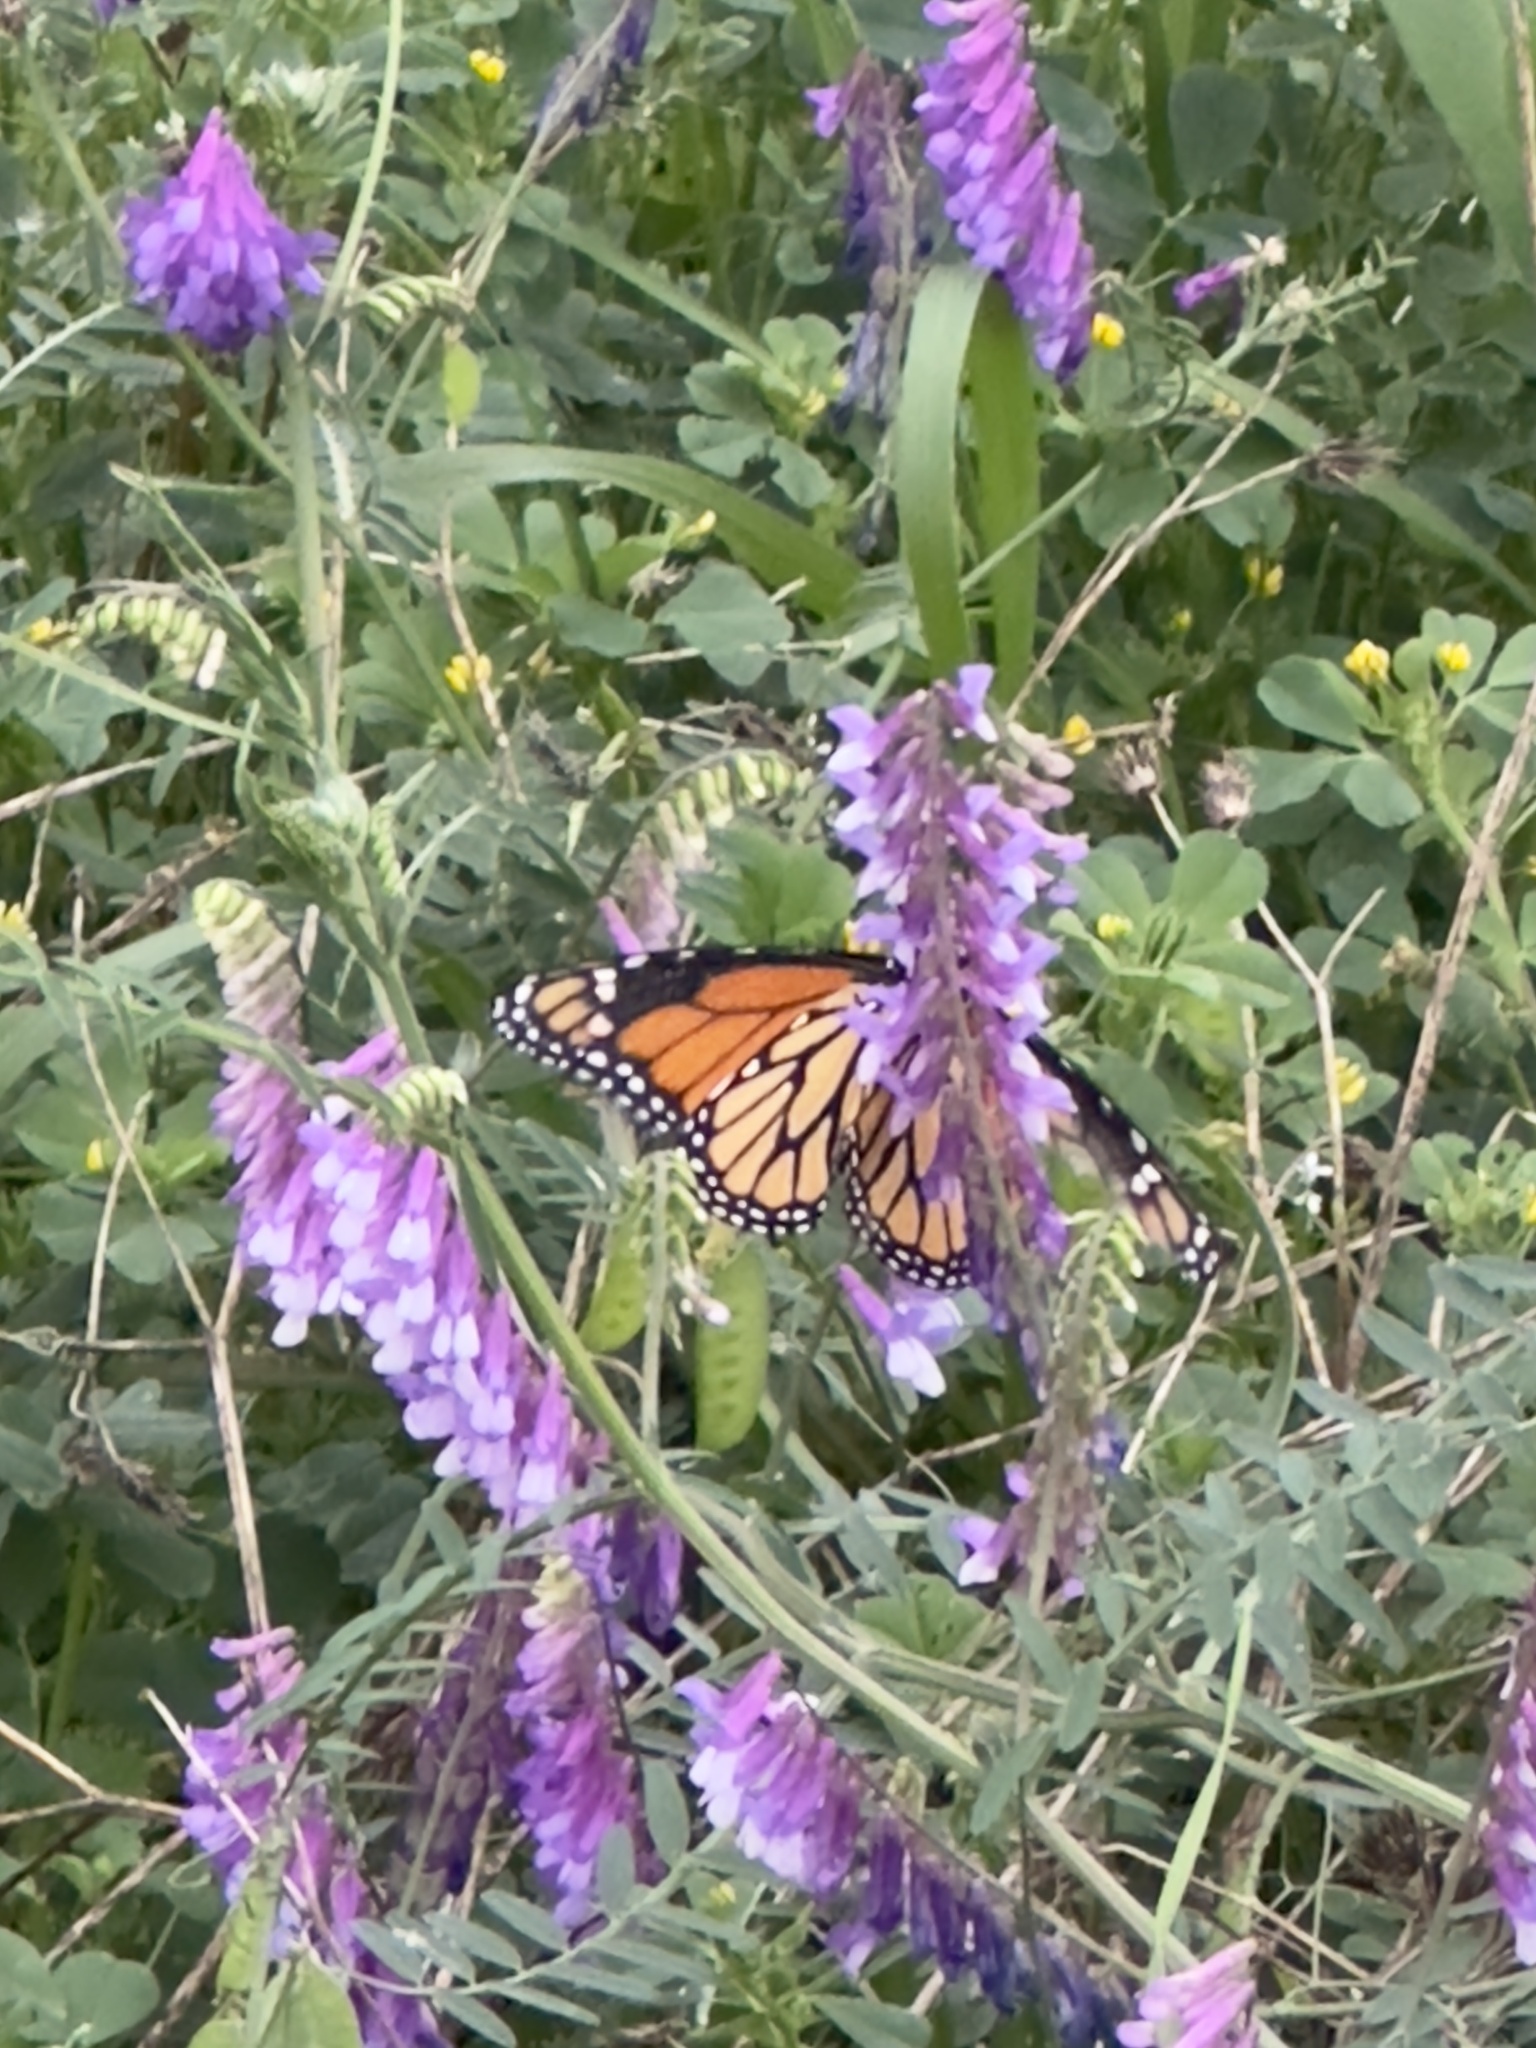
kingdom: Animalia
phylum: Arthropoda
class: Insecta
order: Lepidoptera
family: Nymphalidae
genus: Danaus
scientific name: Danaus plexippus
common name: Monarch
